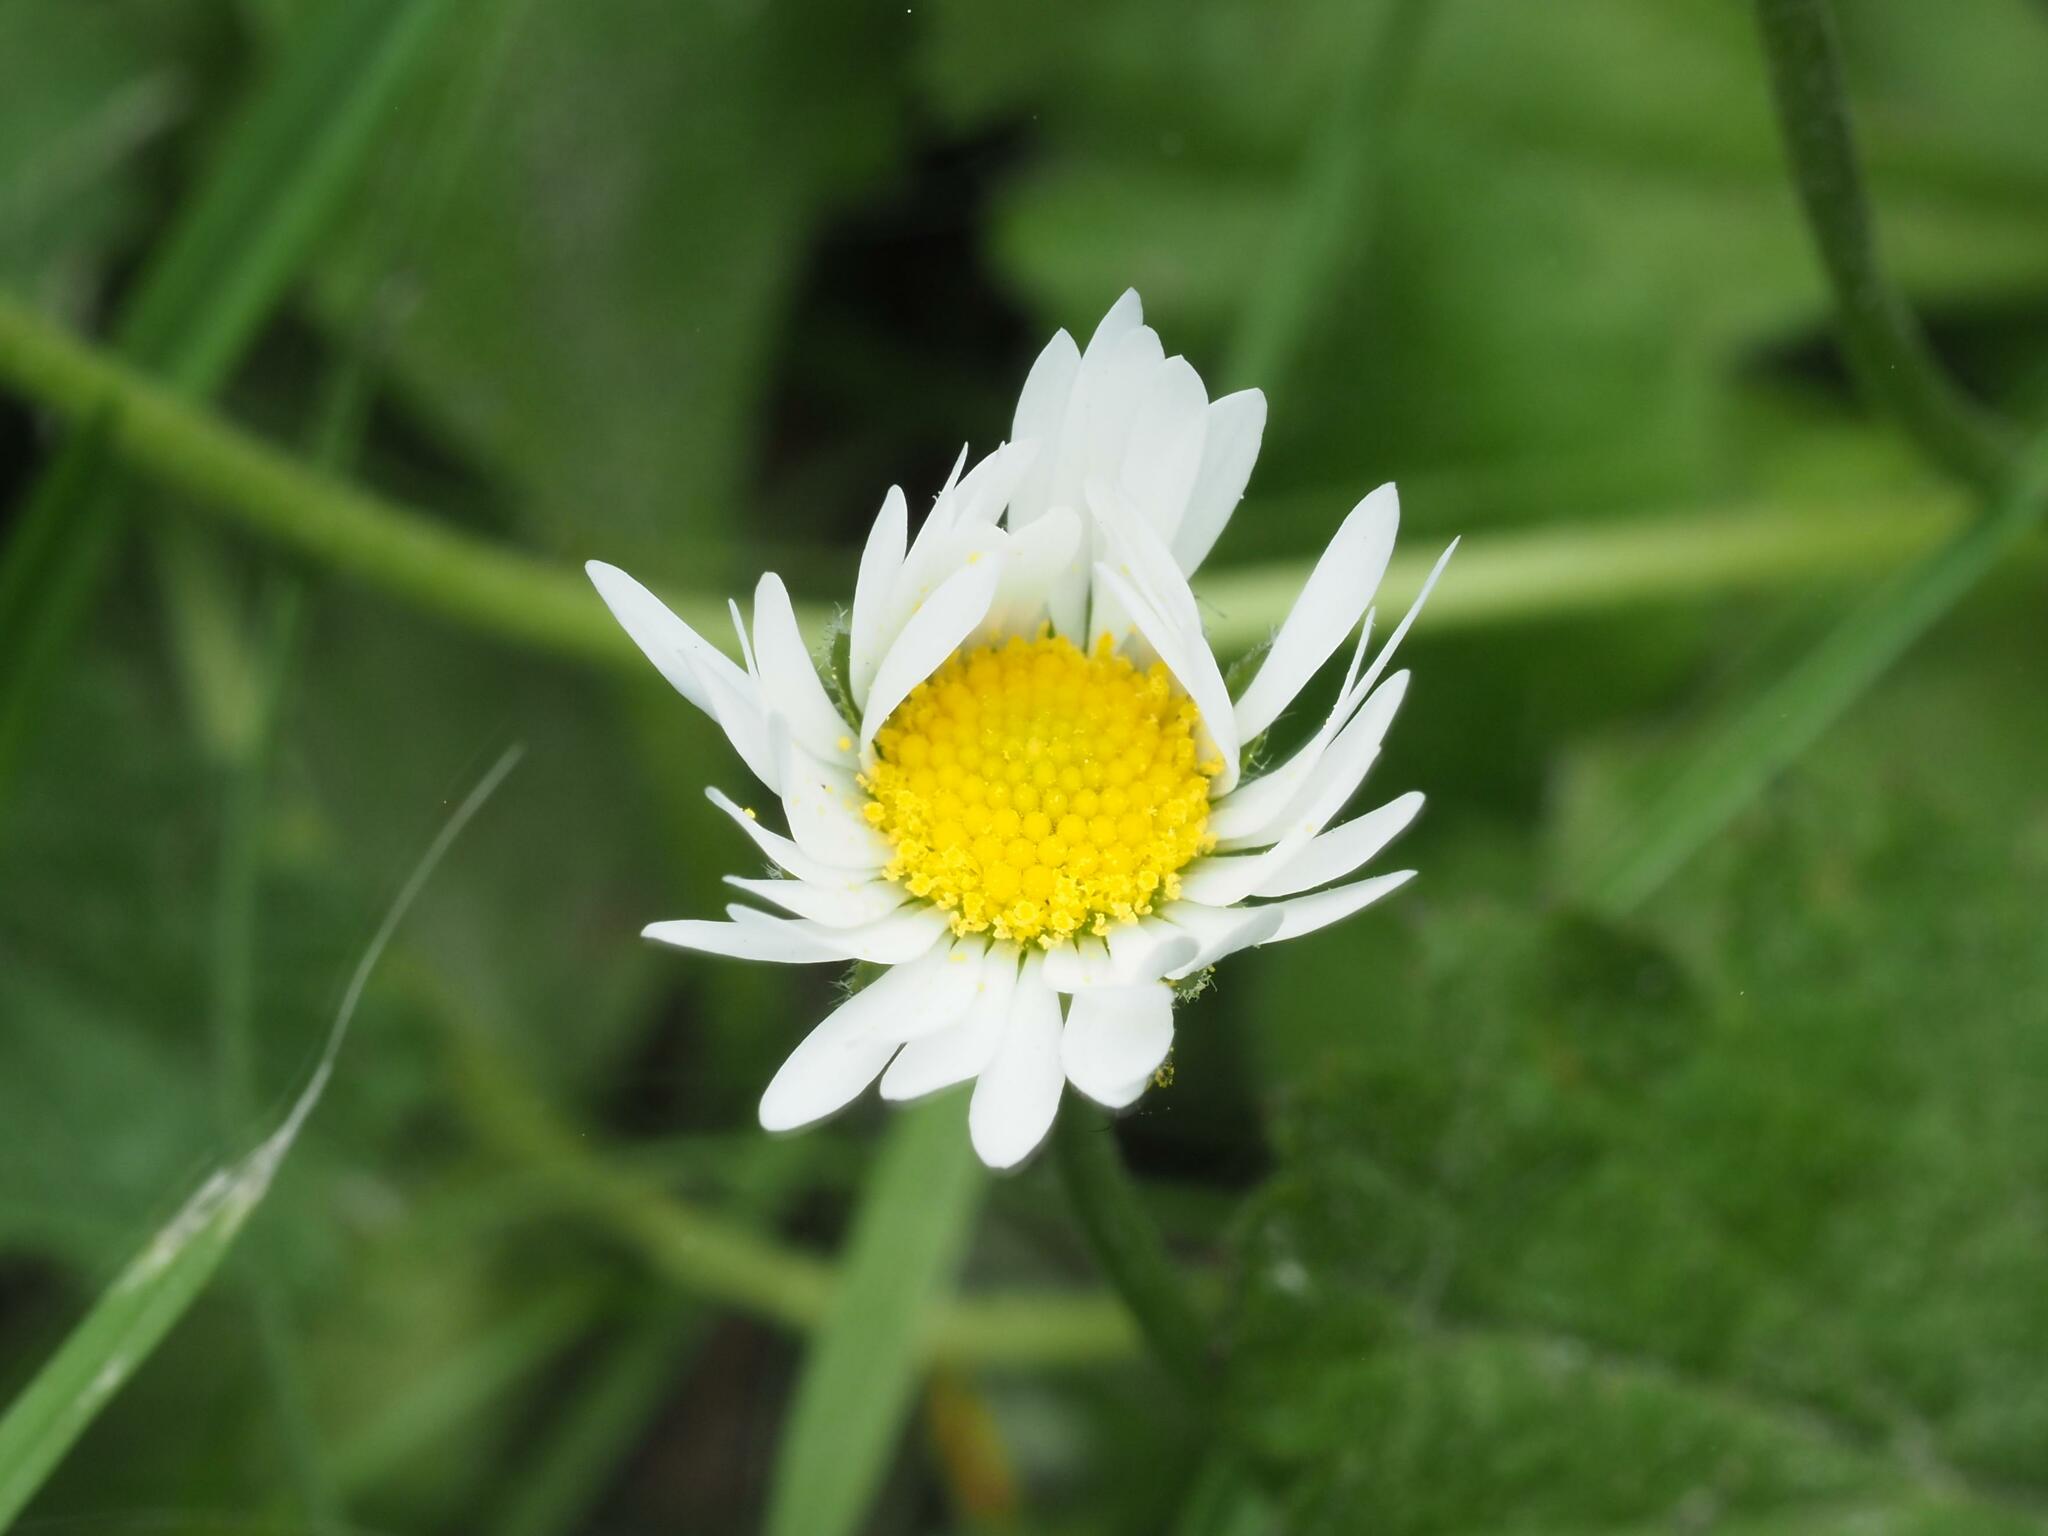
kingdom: Plantae
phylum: Tracheophyta
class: Magnoliopsida
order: Asterales
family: Asteraceae
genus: Bellis
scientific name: Bellis perennis
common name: Lawndaisy
